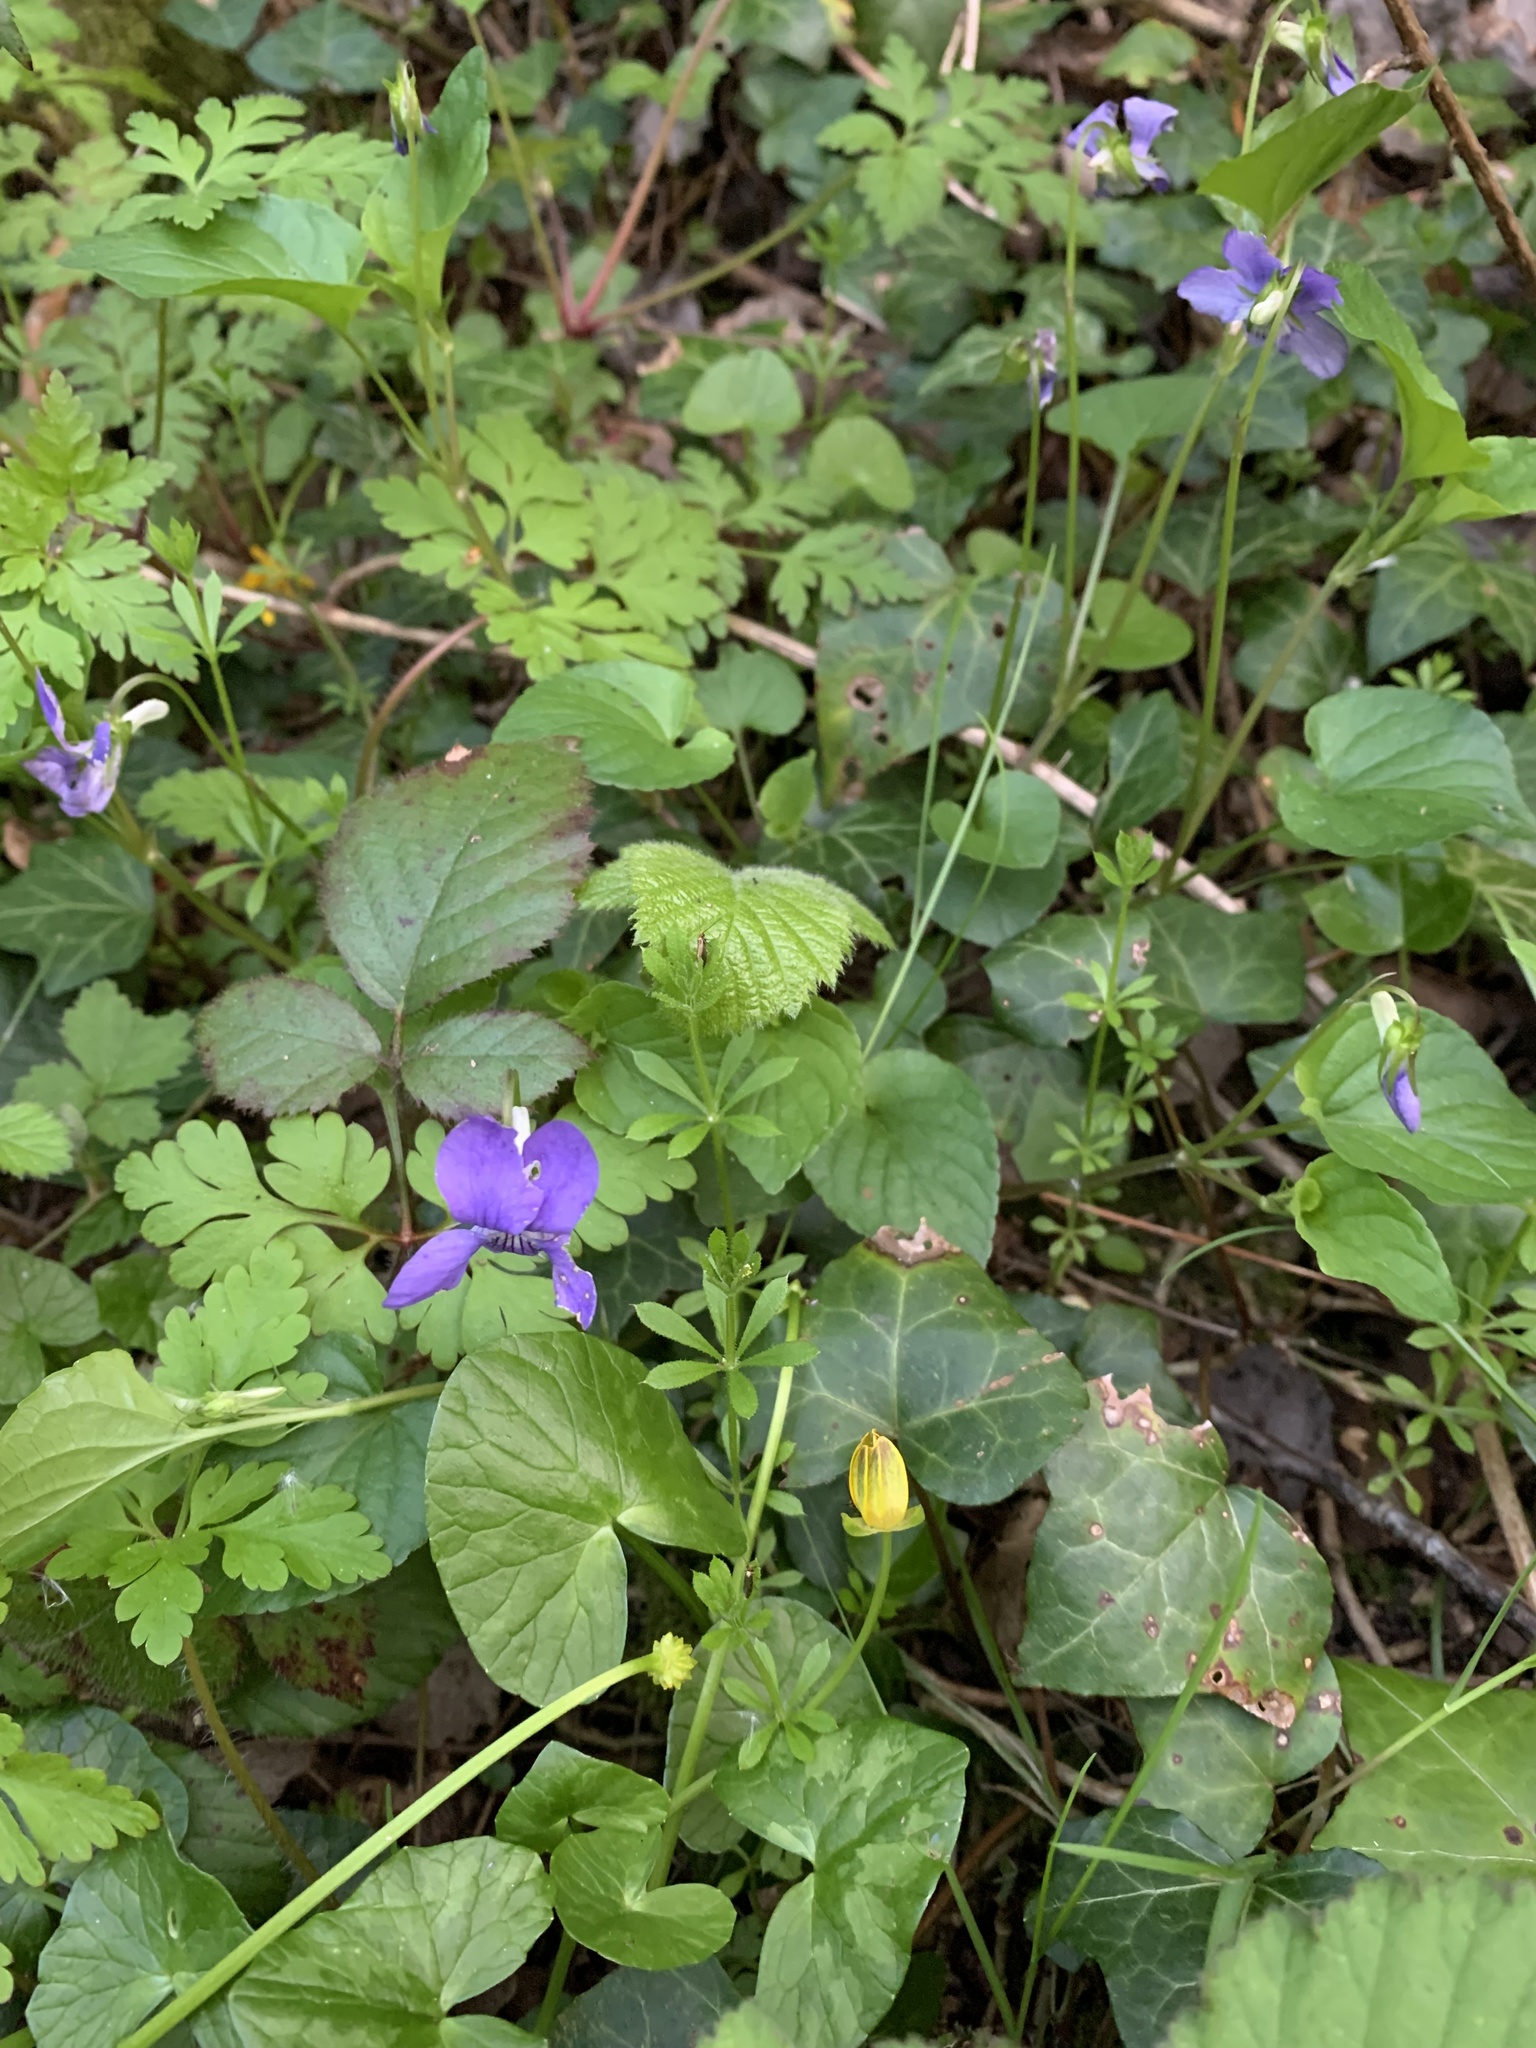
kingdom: Plantae
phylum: Tracheophyta
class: Magnoliopsida
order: Malpighiales
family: Violaceae
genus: Viola
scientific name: Viola riviniana
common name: Common dog-violet
